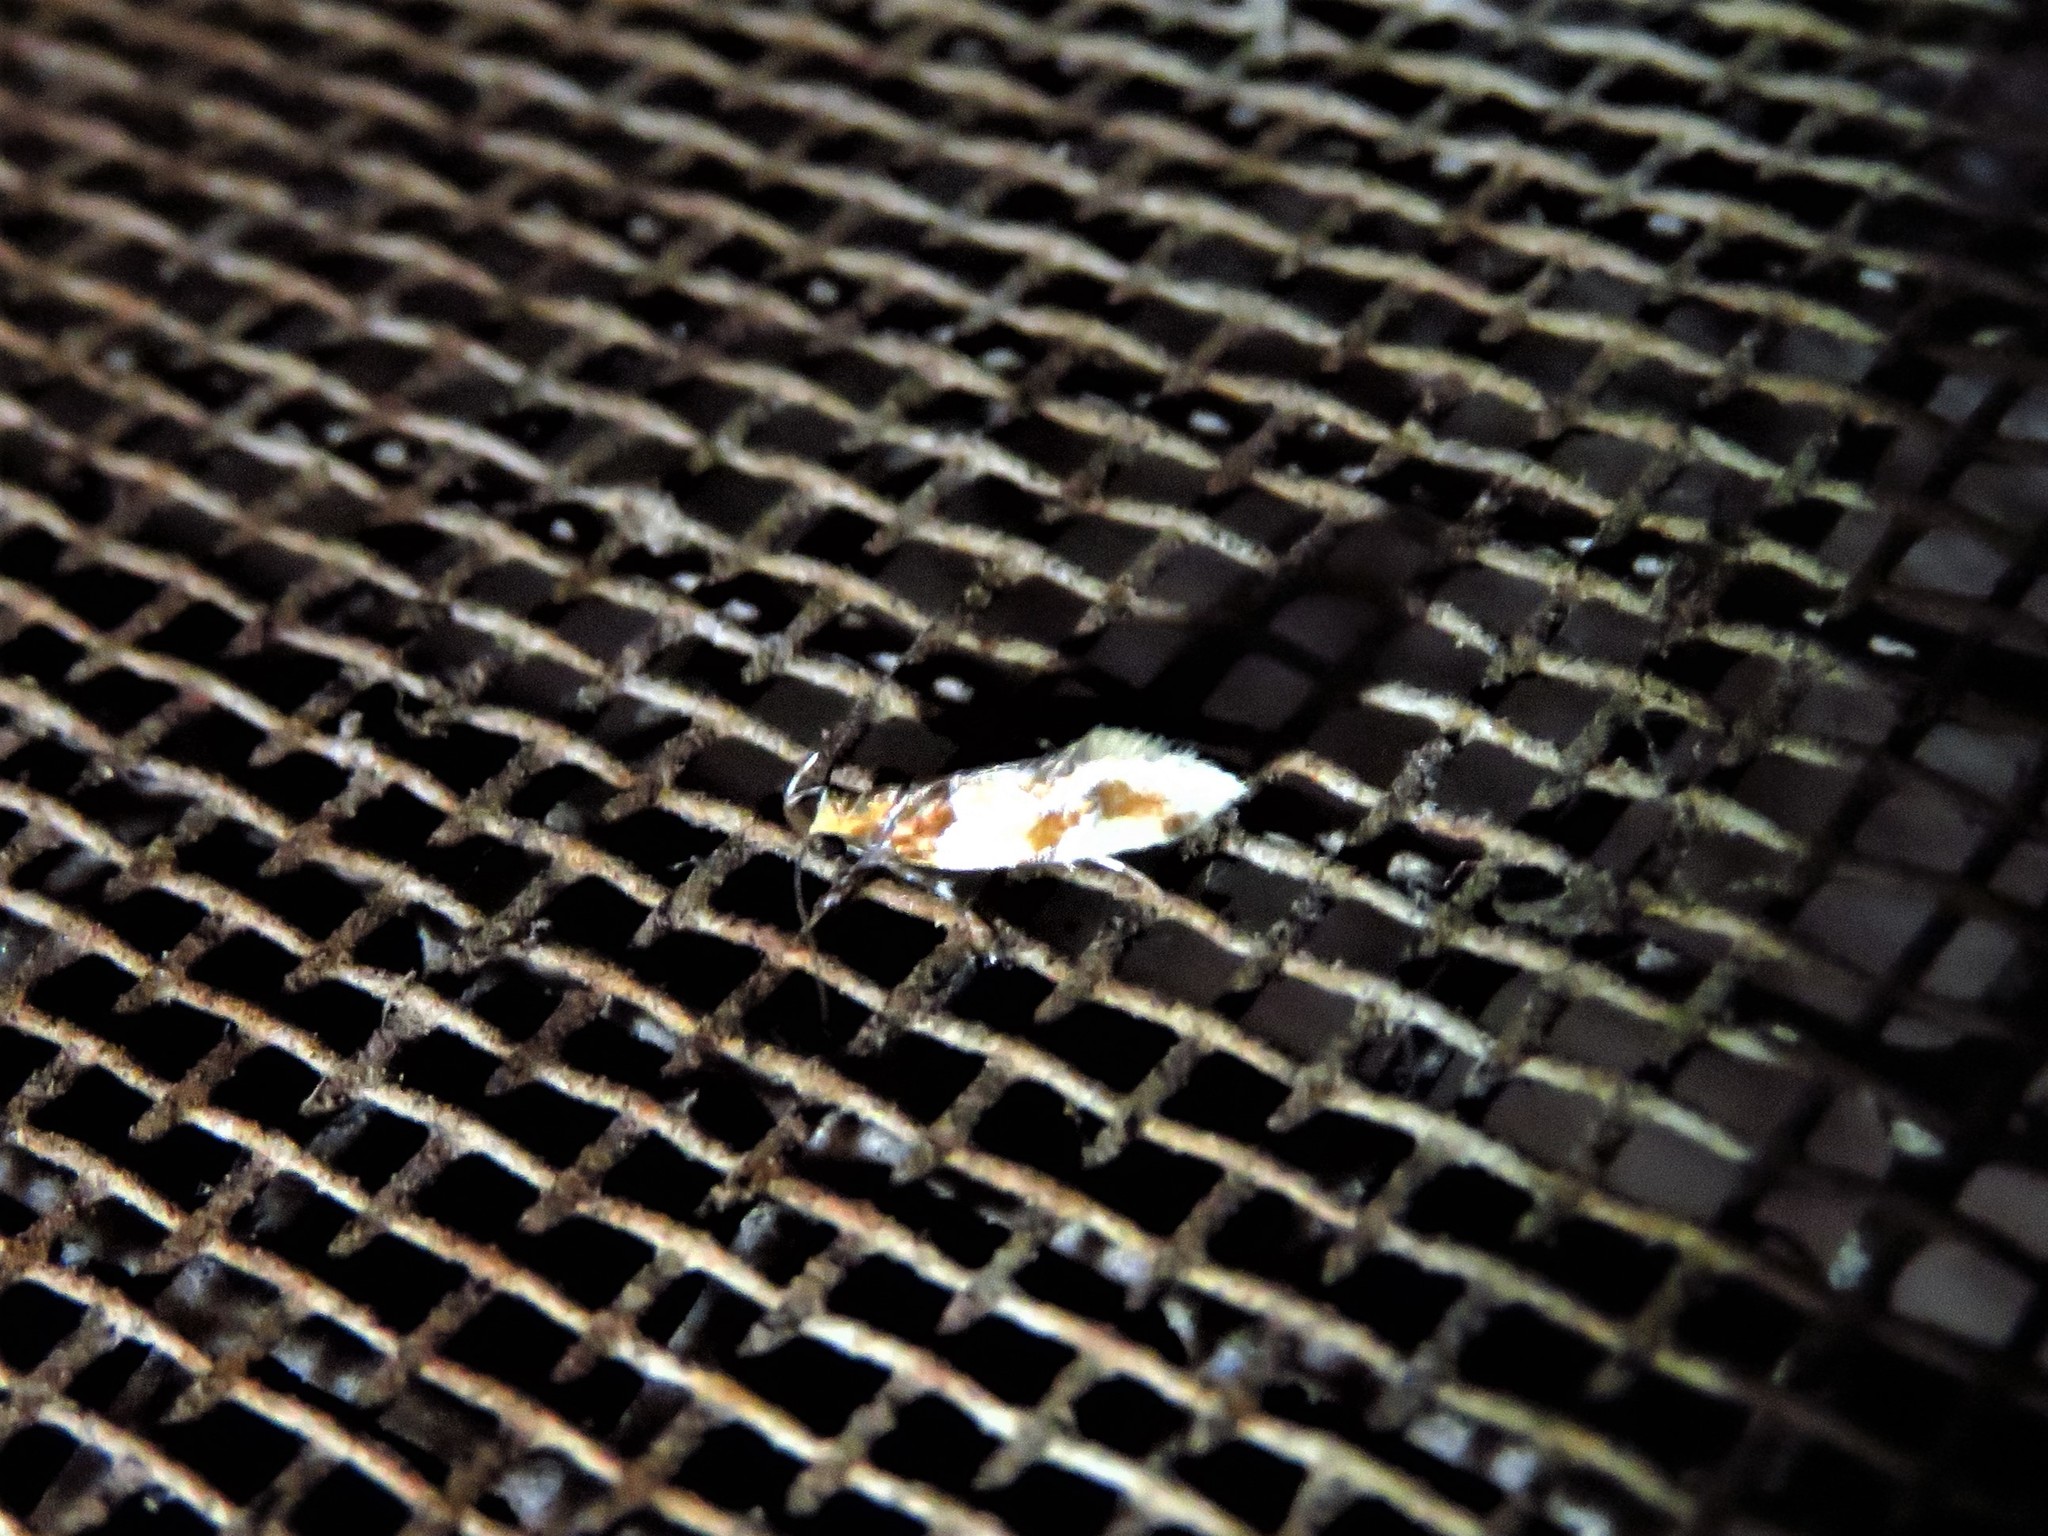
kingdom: Animalia
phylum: Arthropoda
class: Insecta
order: Lepidoptera
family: Oecophoridae
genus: Callima
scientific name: Callima argenticinctella
